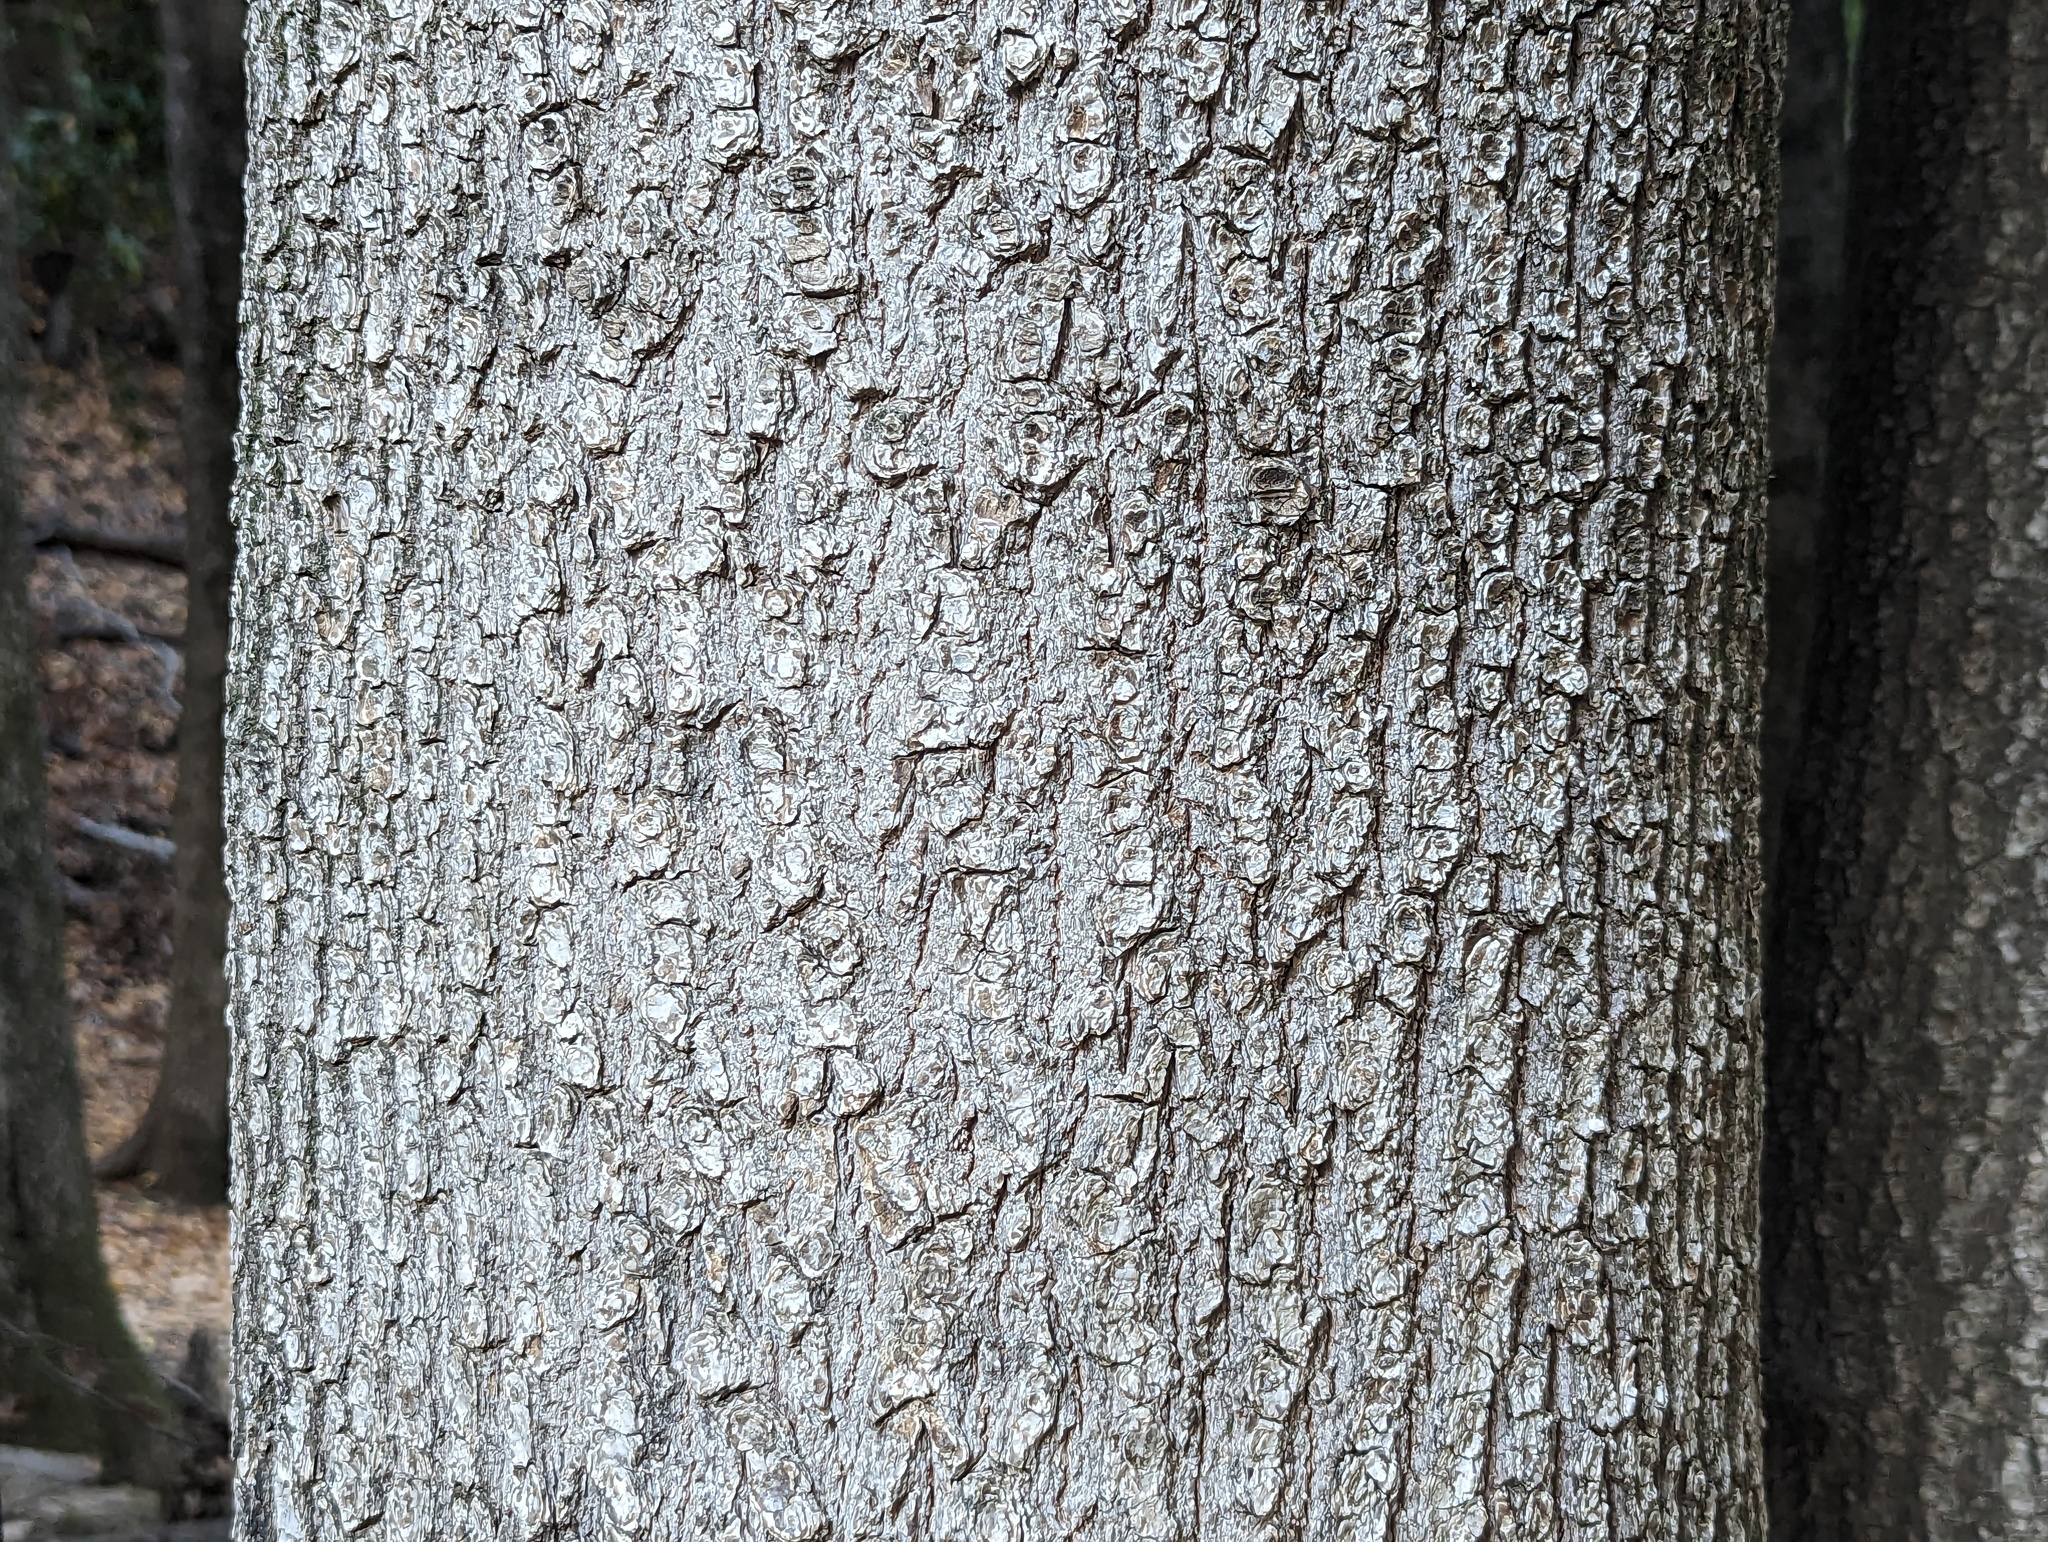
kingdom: Plantae
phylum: Tracheophyta
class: Magnoliopsida
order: Laurales
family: Lauraceae
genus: Umbellularia
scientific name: Umbellularia californica
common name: California bay
